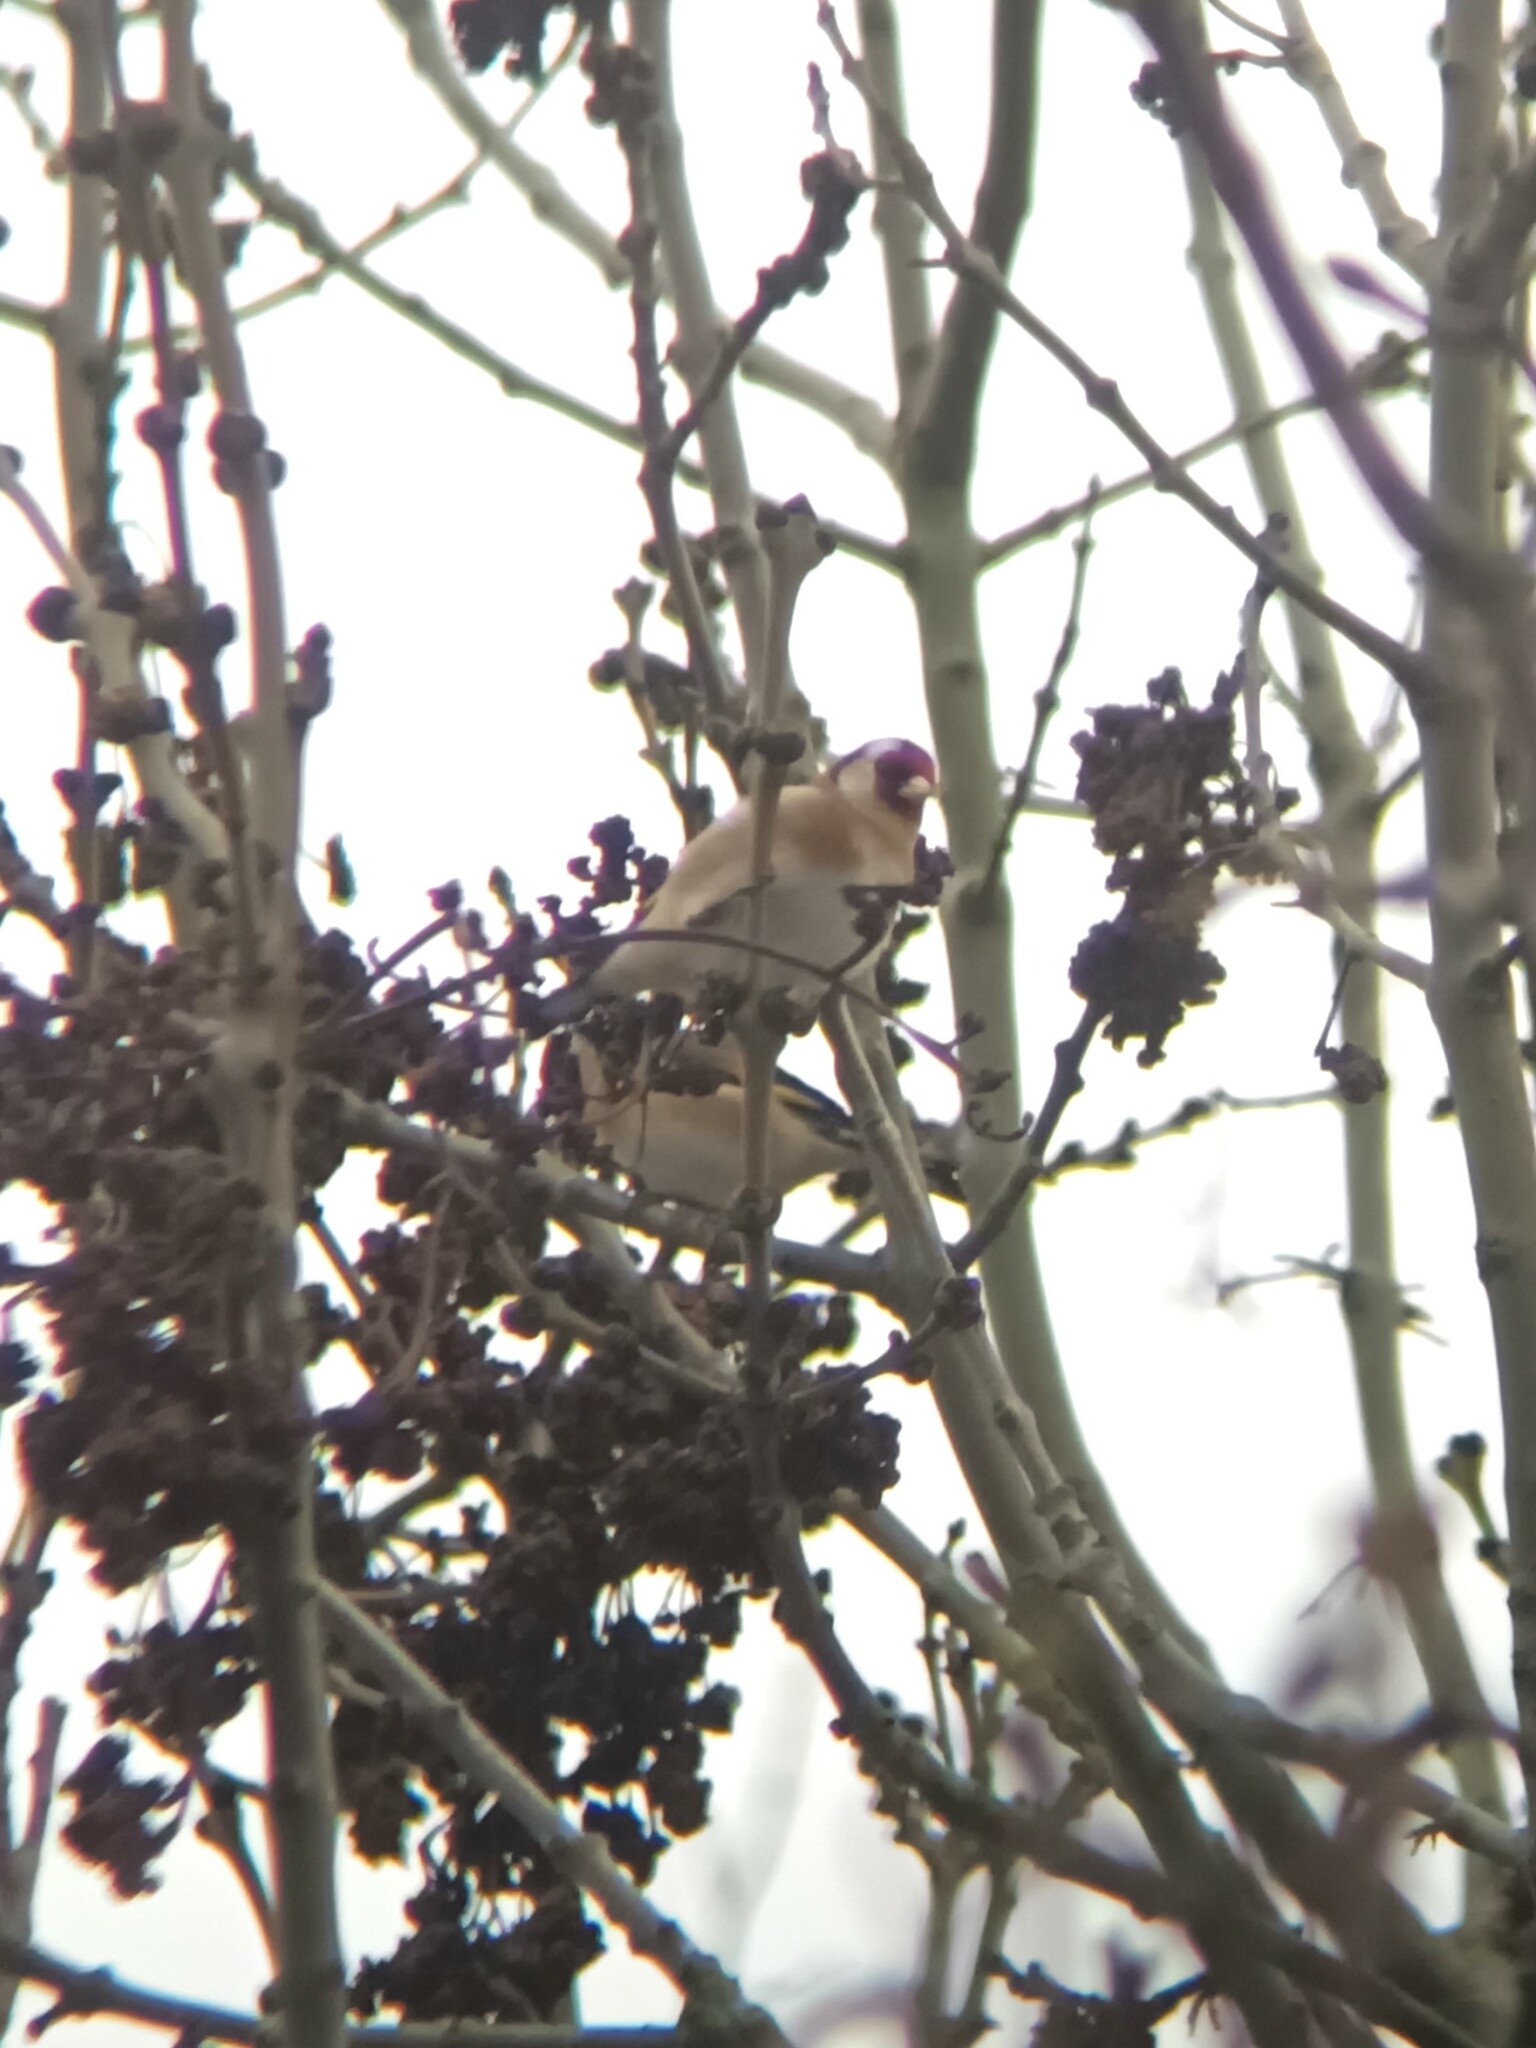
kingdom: Animalia
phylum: Chordata
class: Aves
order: Passeriformes
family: Fringillidae
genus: Carduelis
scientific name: Carduelis carduelis
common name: European goldfinch
